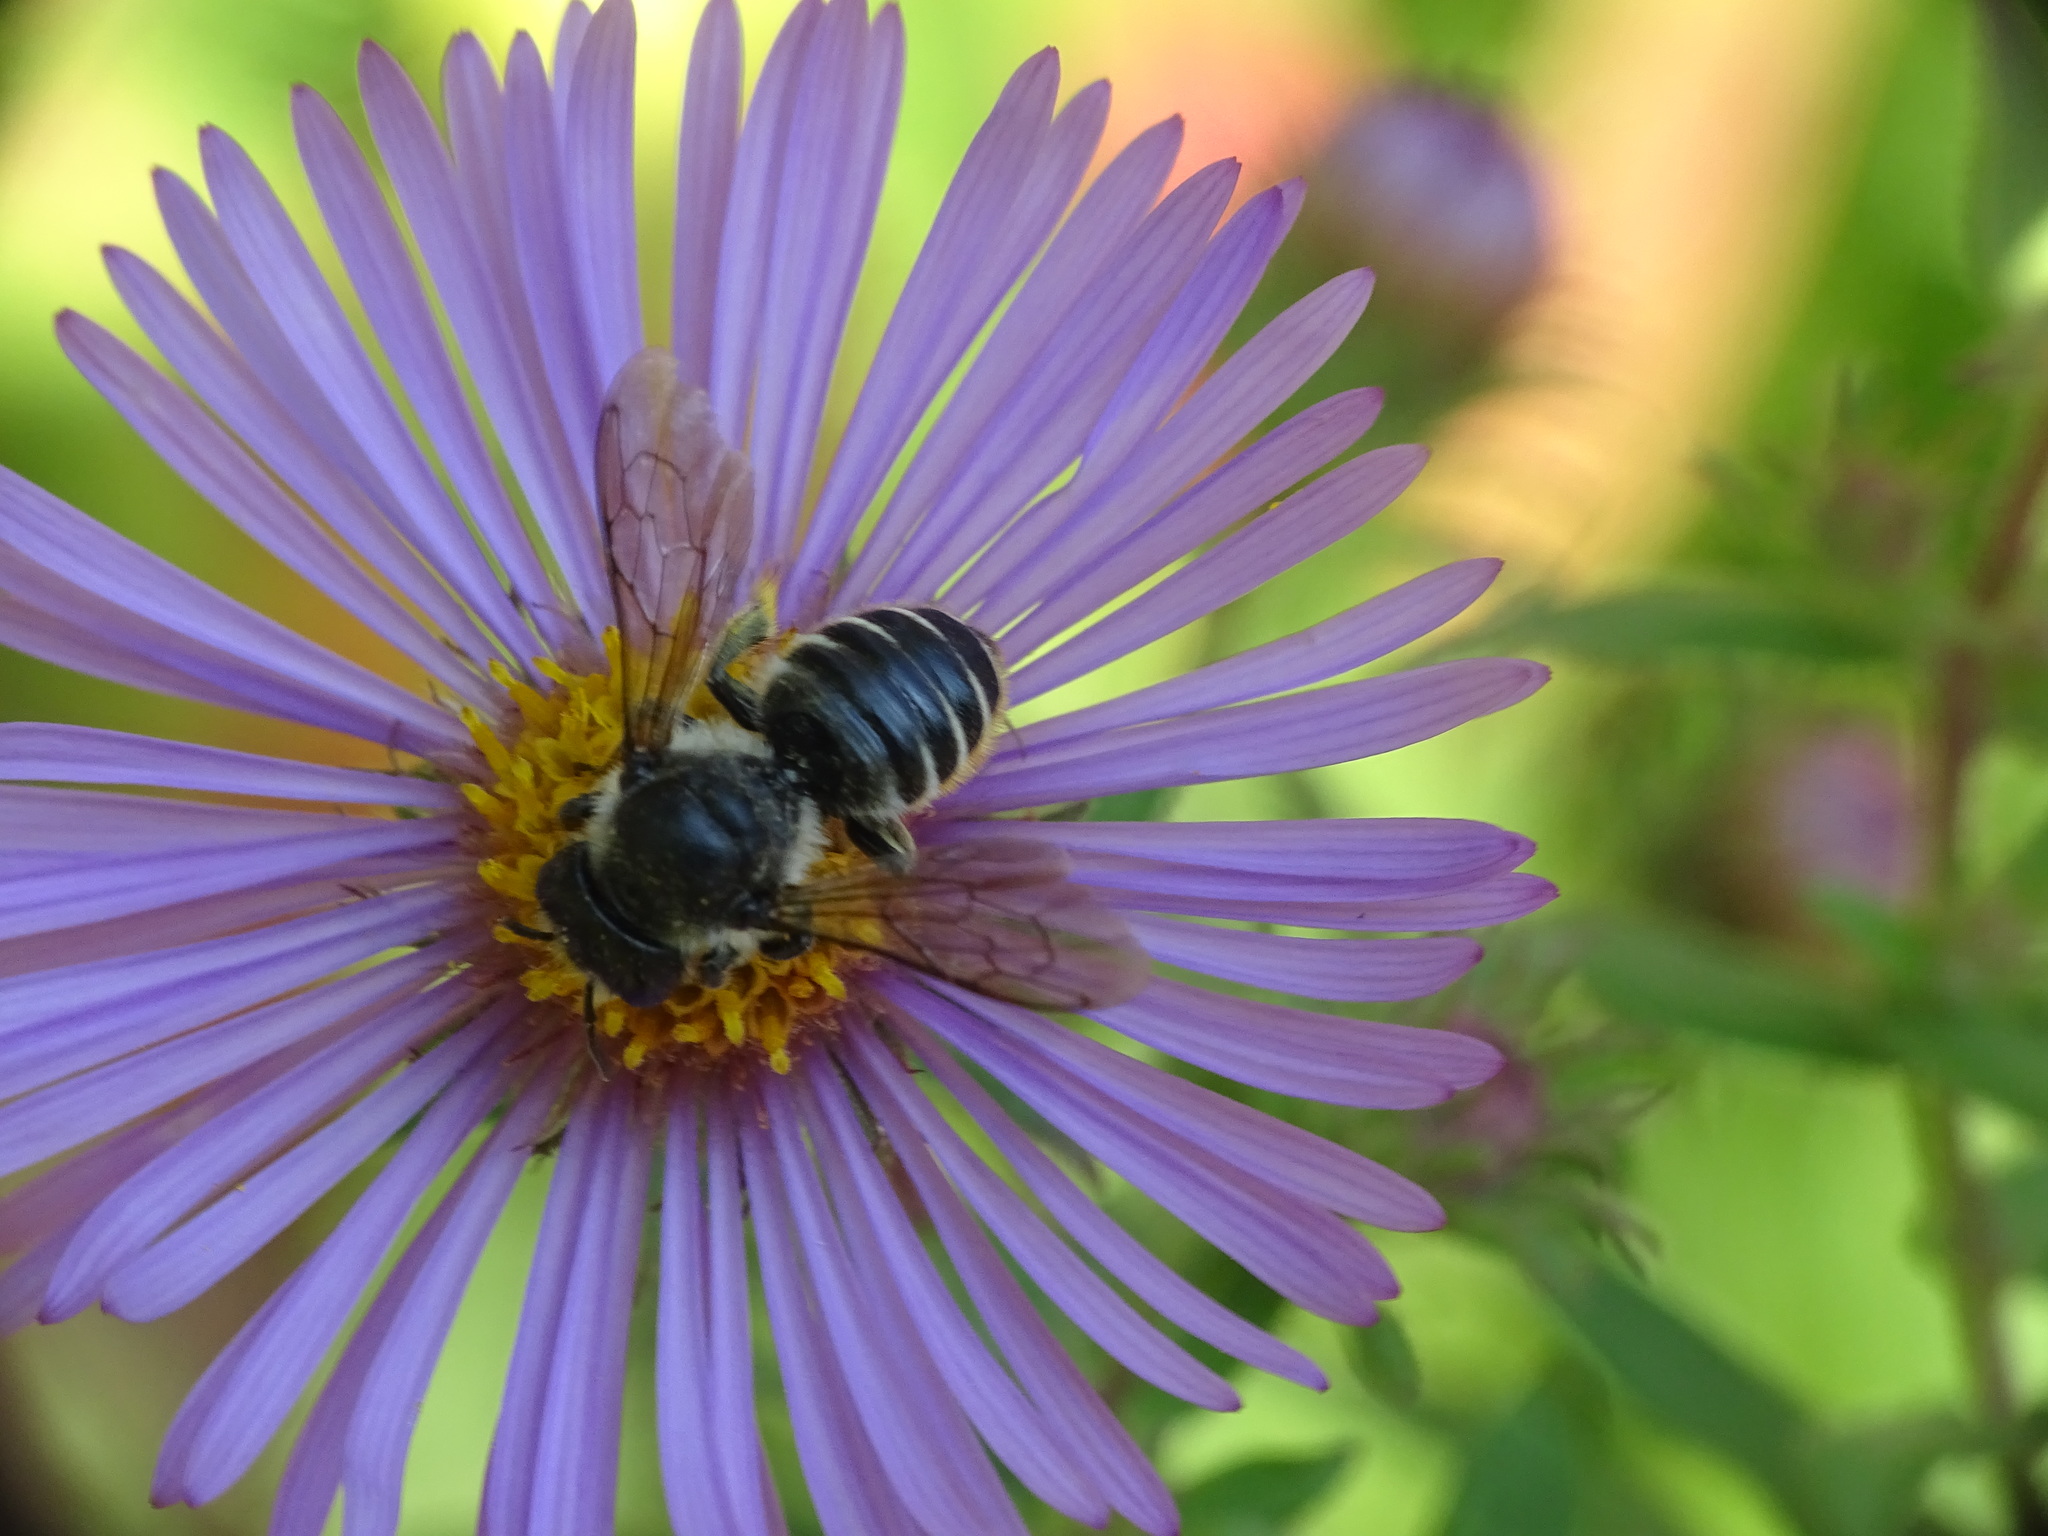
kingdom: Animalia
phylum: Arthropoda
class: Insecta
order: Hymenoptera
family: Megachilidae
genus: Megachile
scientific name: Megachile relativa
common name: Golden-tailed leafcutter
